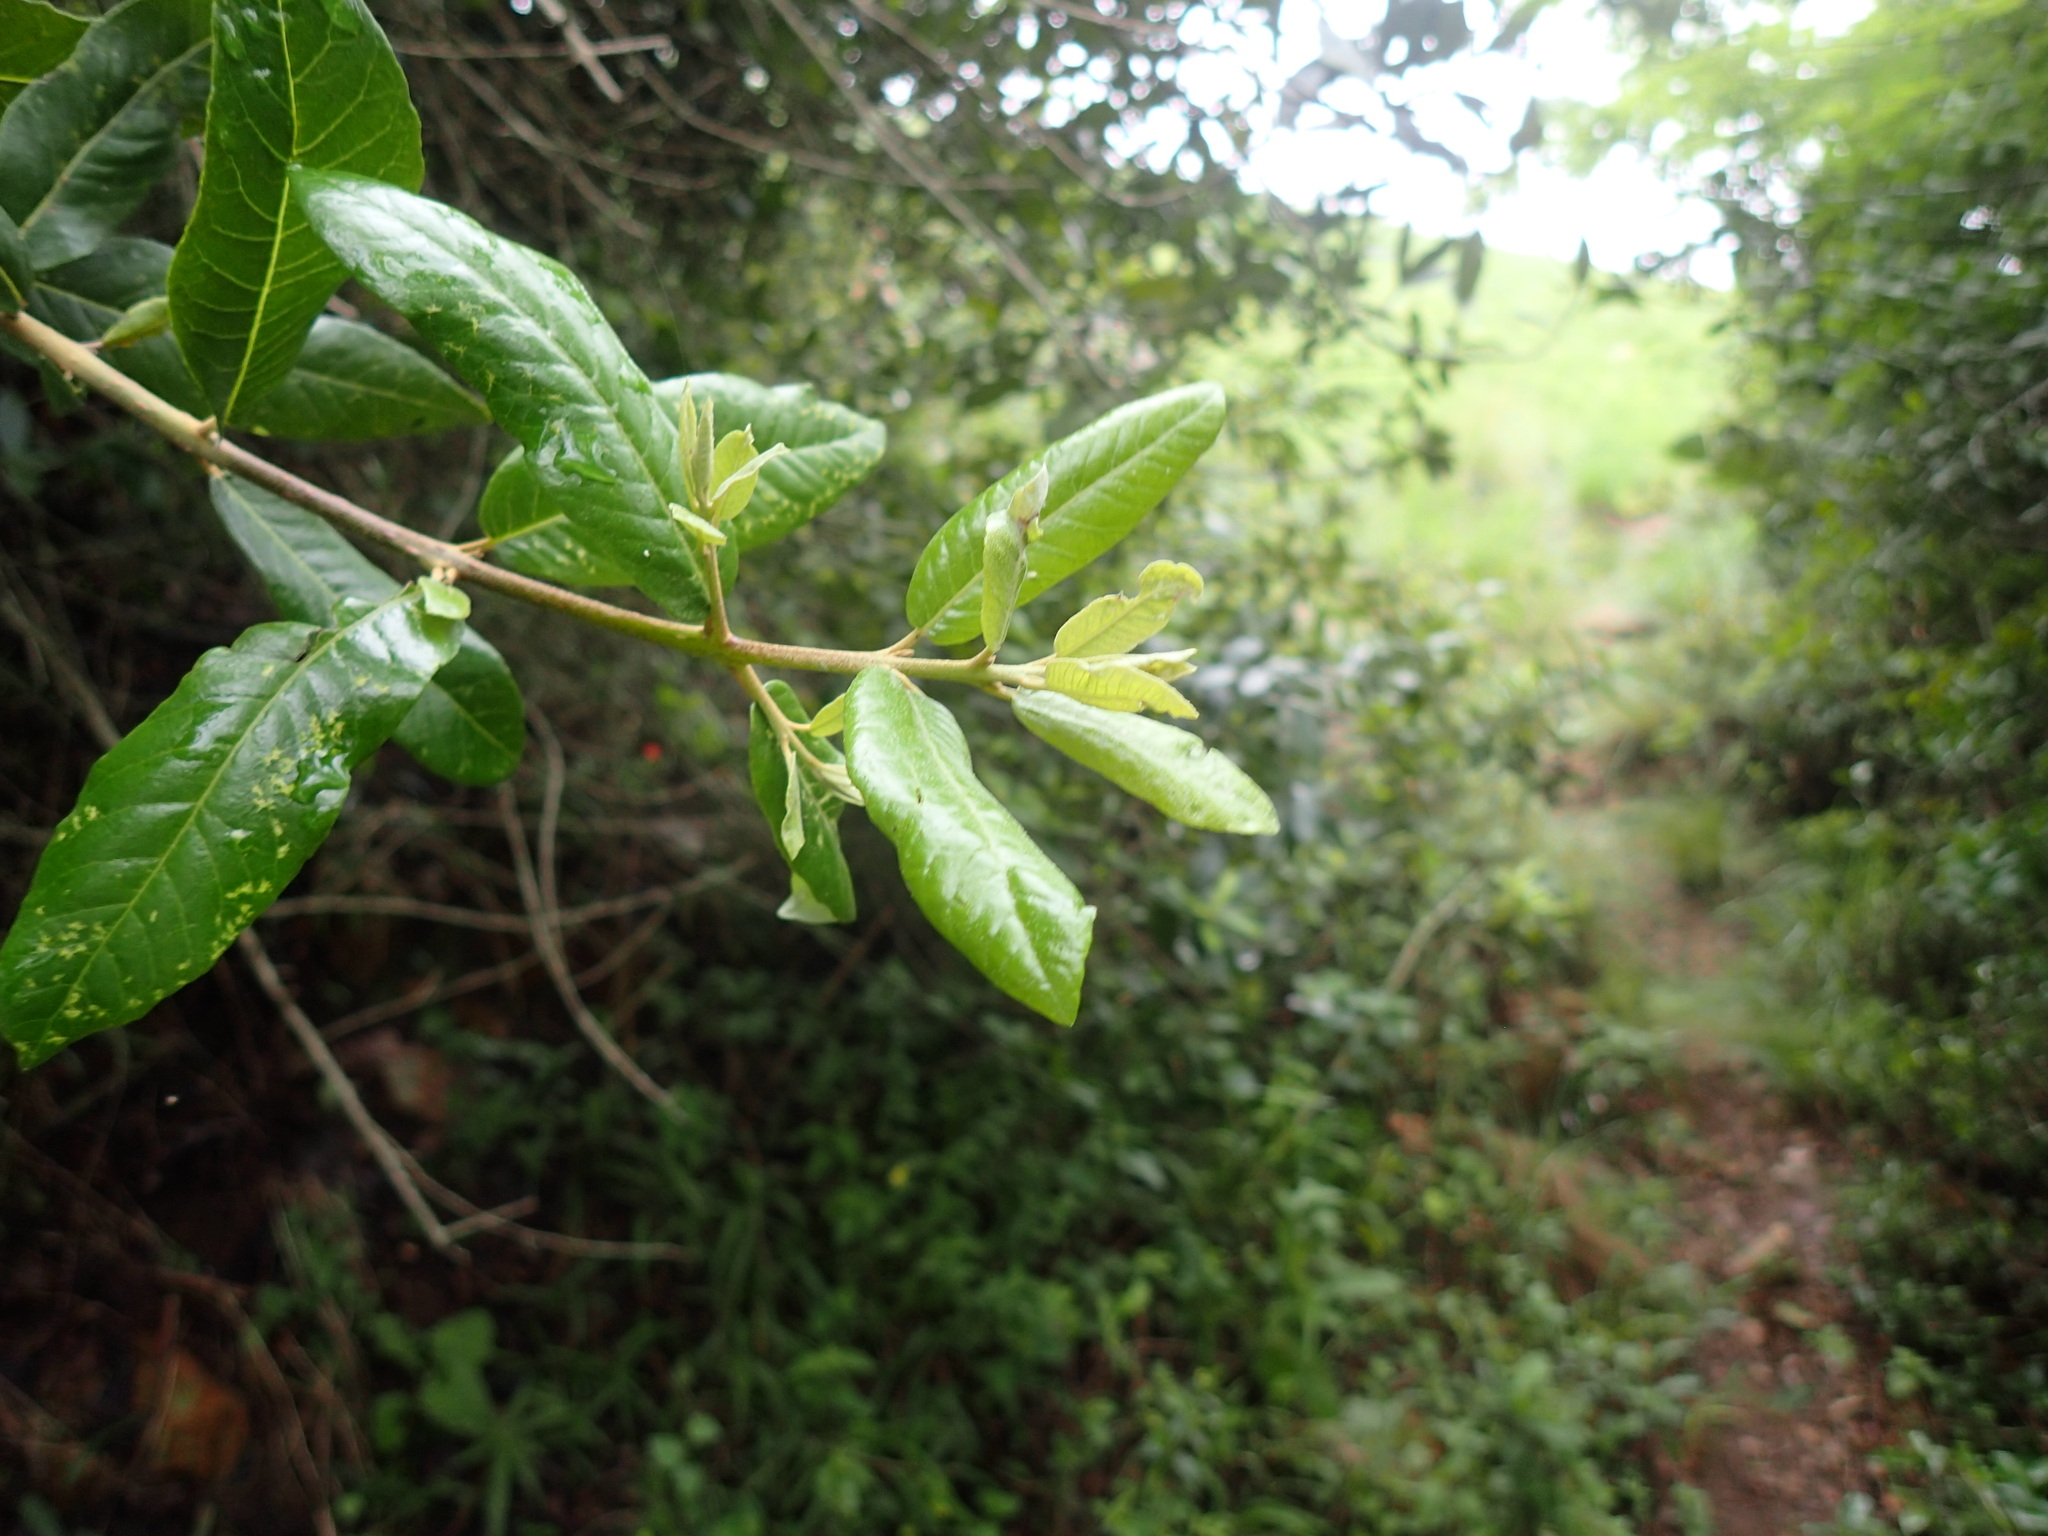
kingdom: Plantae
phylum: Tracheophyta
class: Magnoliopsida
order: Lamiales
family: Stilbaceae
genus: Anastrabe
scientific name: Anastrabe integerrima
